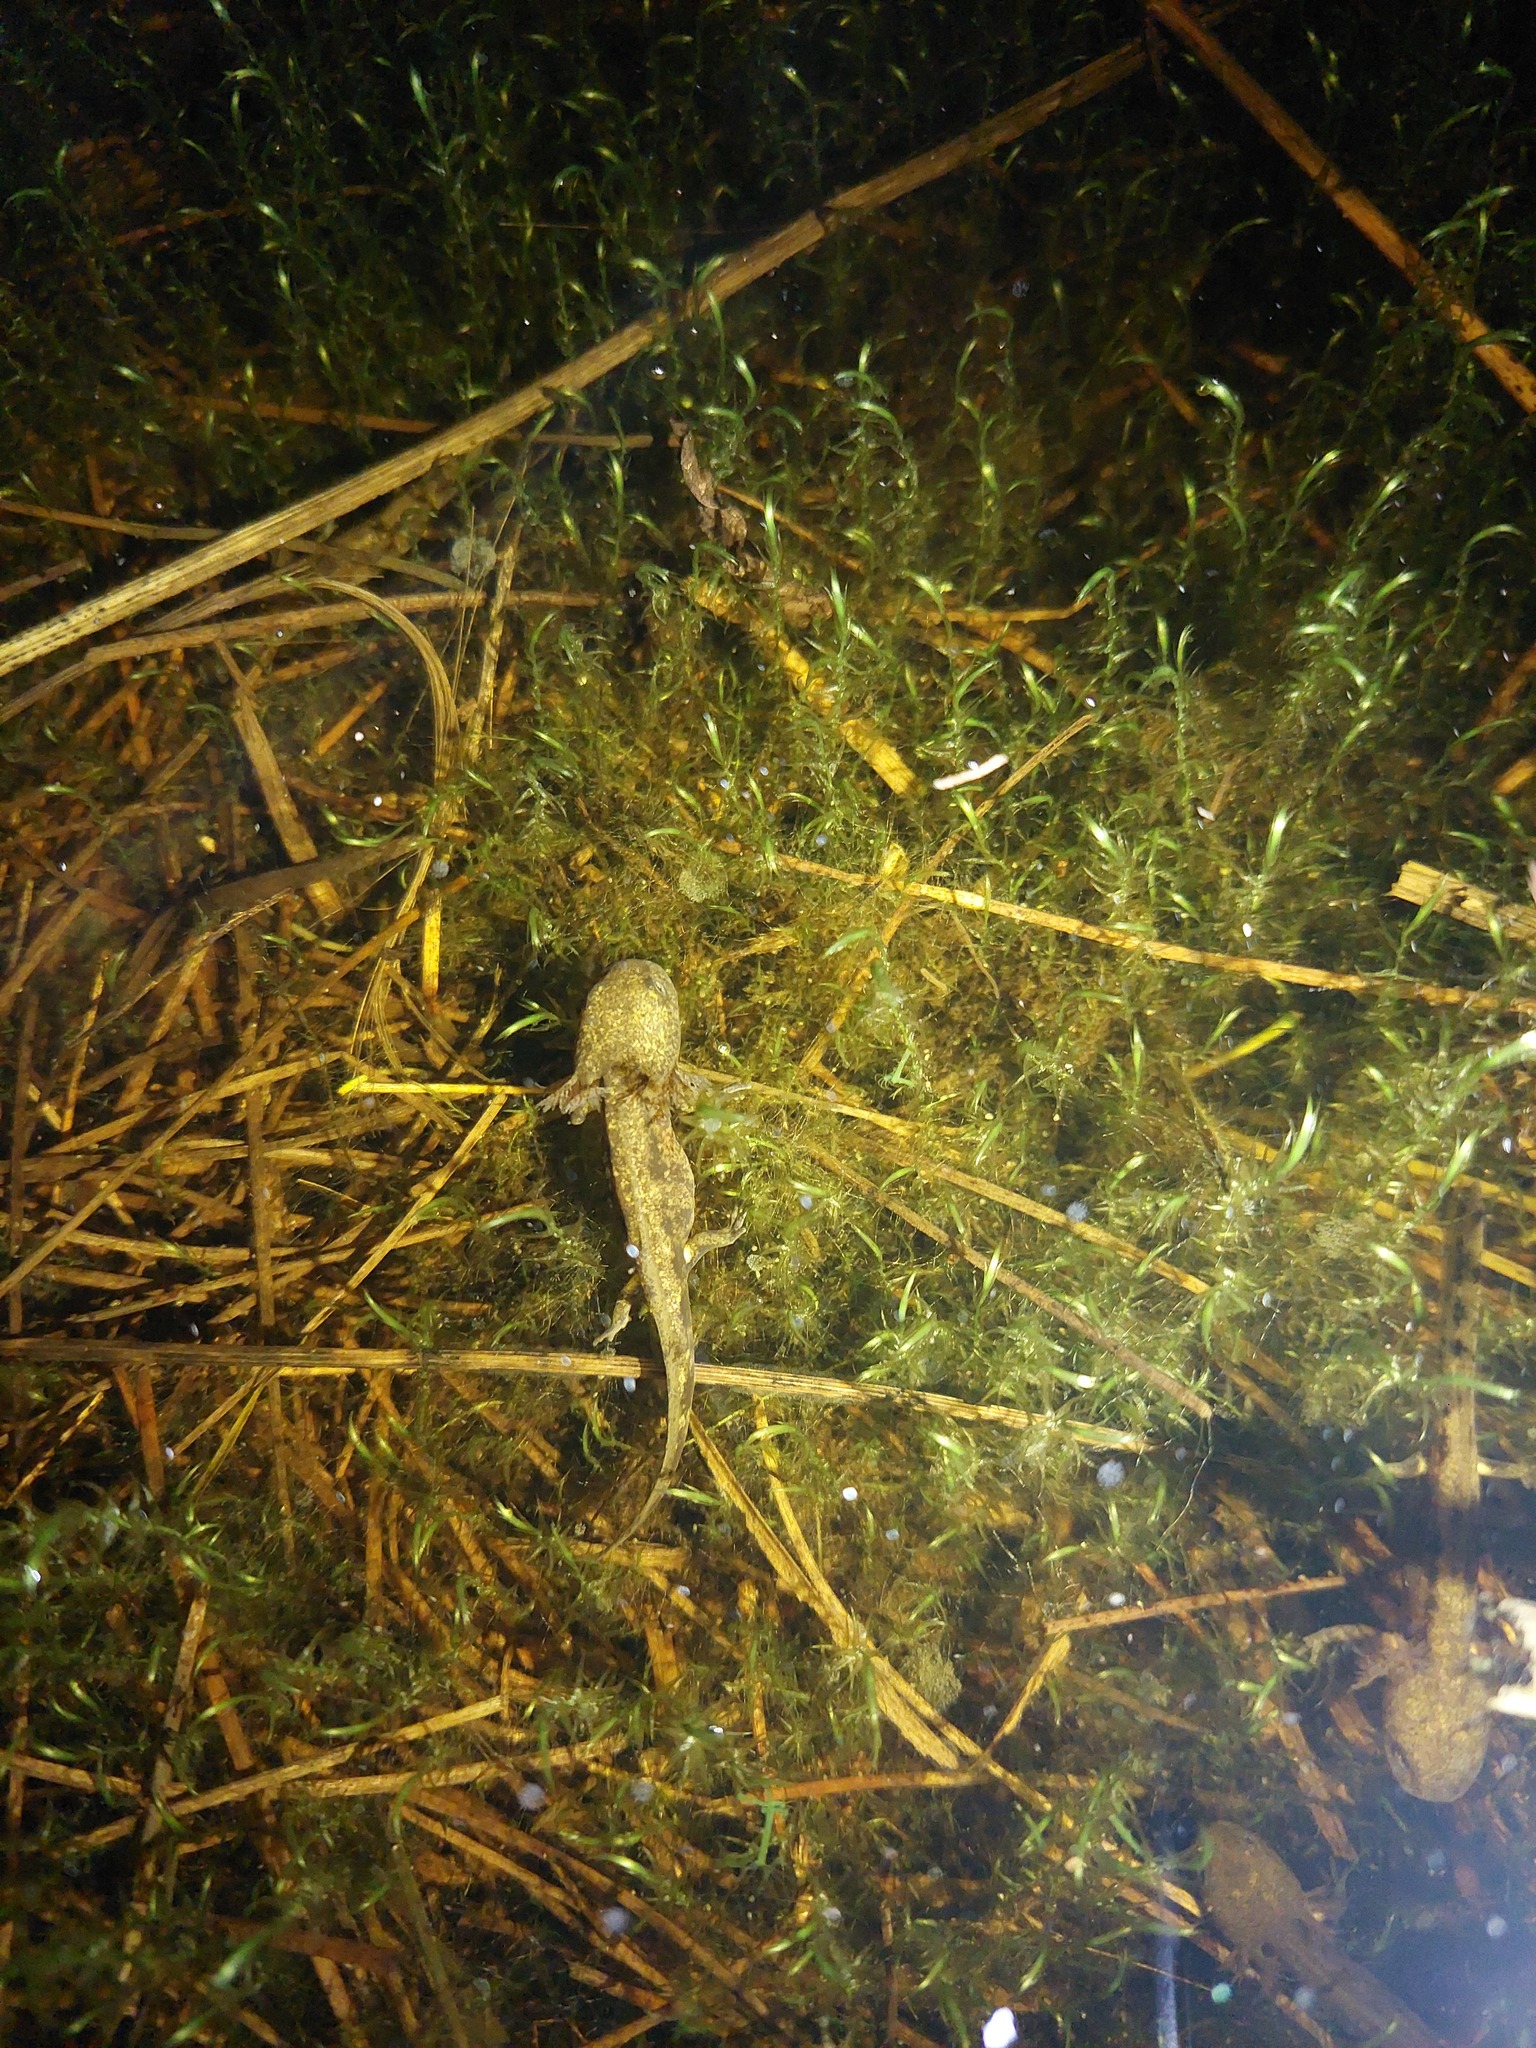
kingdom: Animalia
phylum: Chordata
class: Amphibia
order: Caudata
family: Salamandridae
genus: Salamandra
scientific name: Salamandra salamandra
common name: Fire salamander
